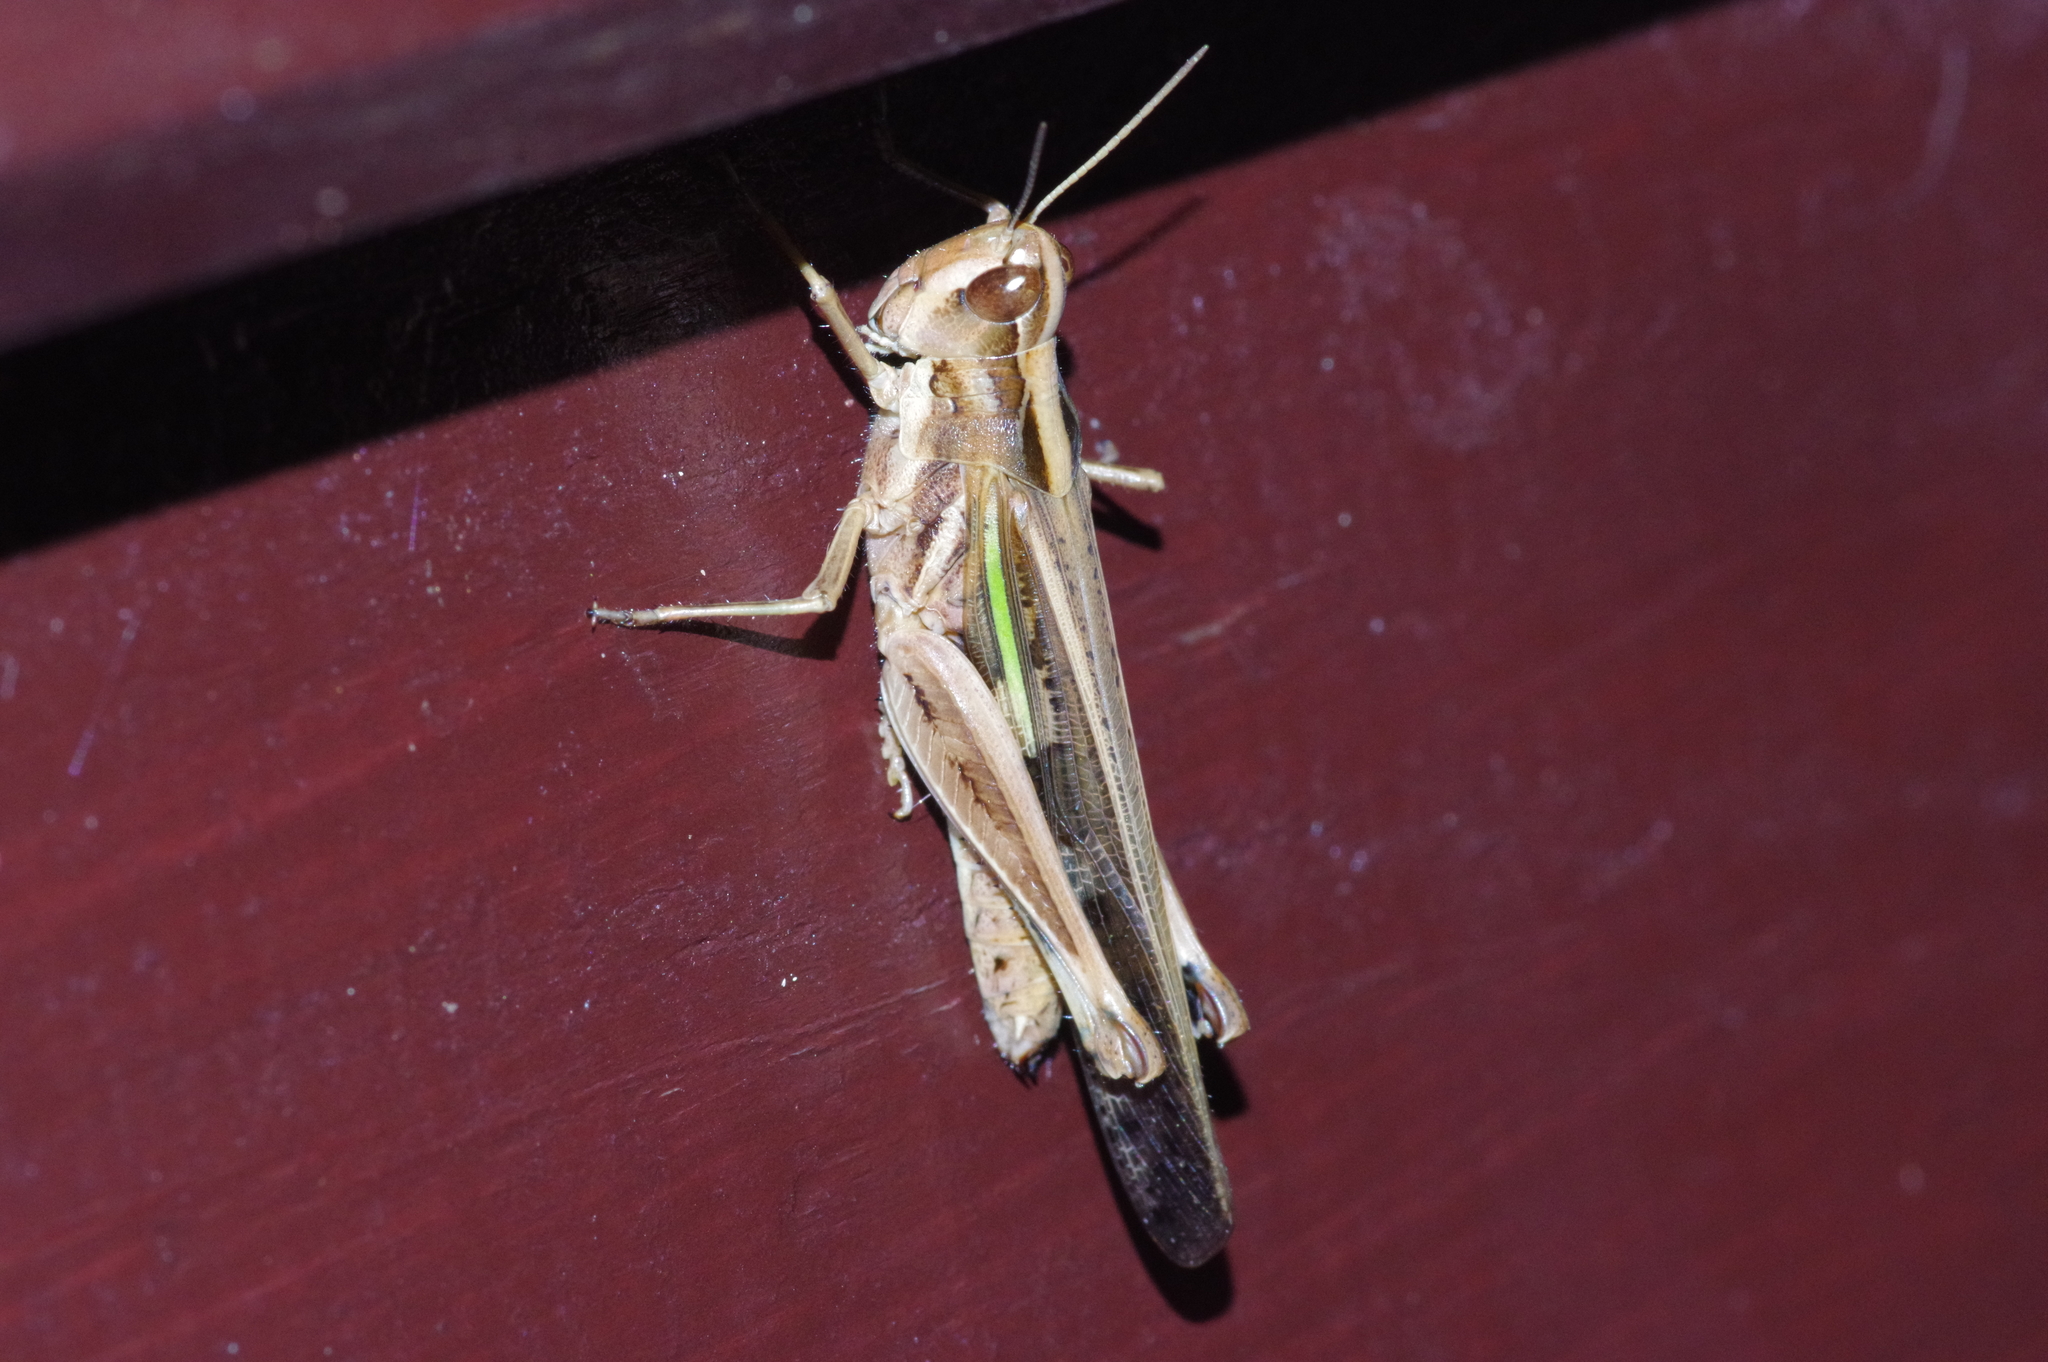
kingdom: Animalia
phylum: Arthropoda
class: Insecta
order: Orthoptera
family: Acrididae
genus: Aiolopus
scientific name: Aiolopus thalassinus
